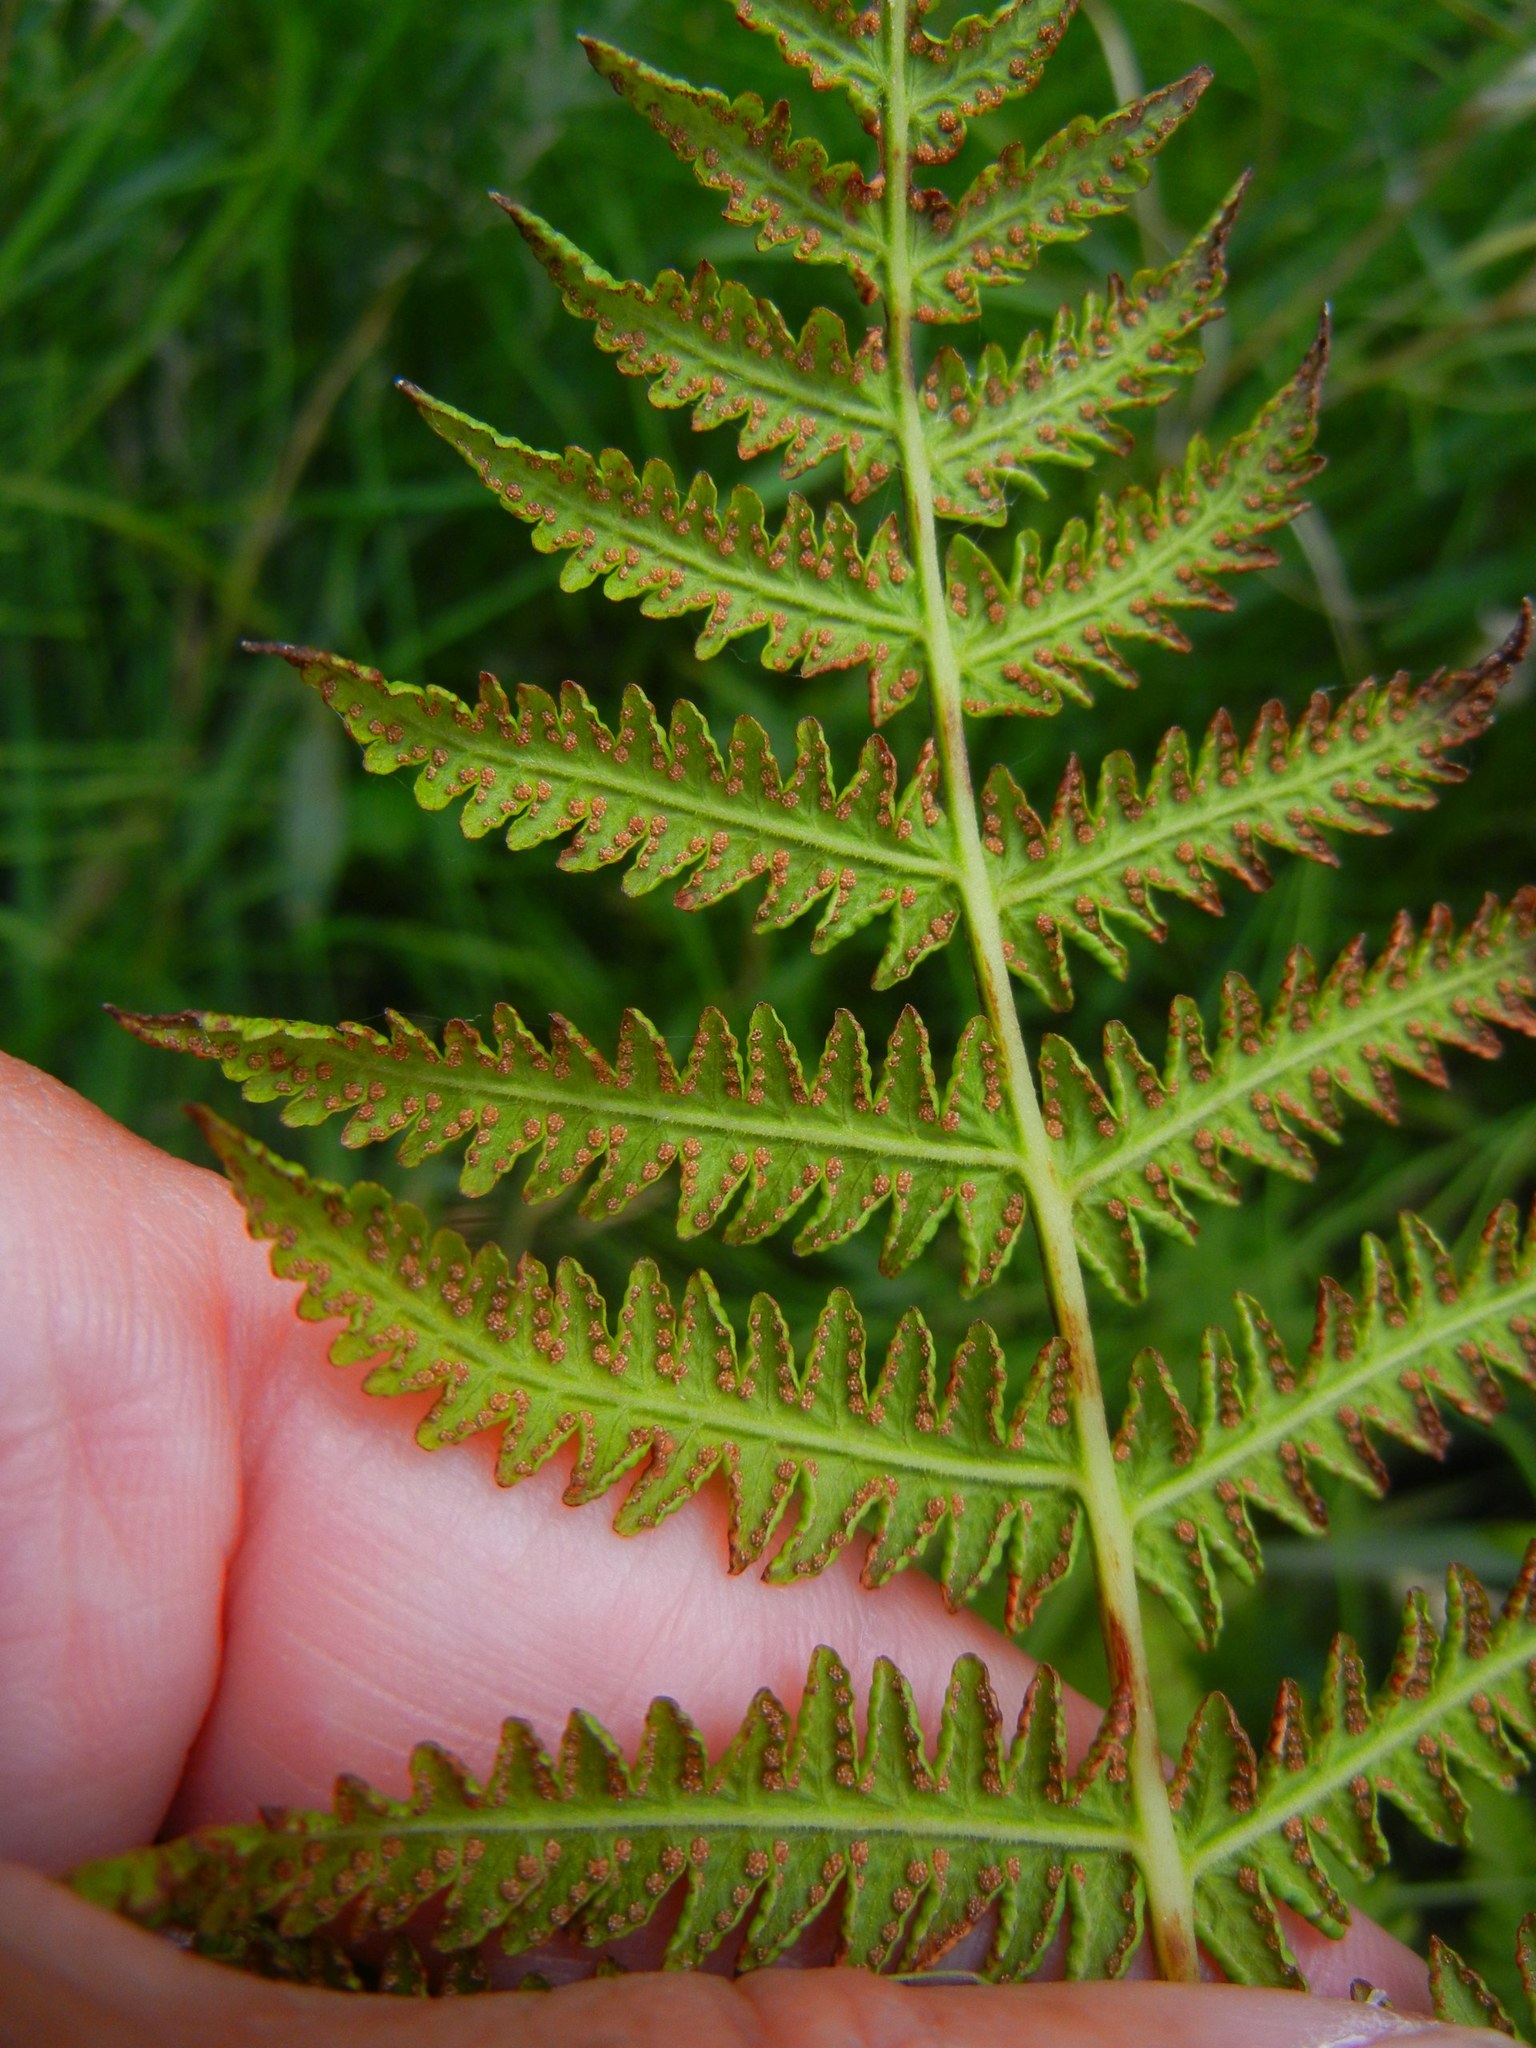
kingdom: Plantae
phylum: Tracheophyta
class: Polypodiopsida
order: Polypodiales
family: Thelypteridaceae
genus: Oreopteris
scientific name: Oreopteris limbosperma
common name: Lemon-scented fern
